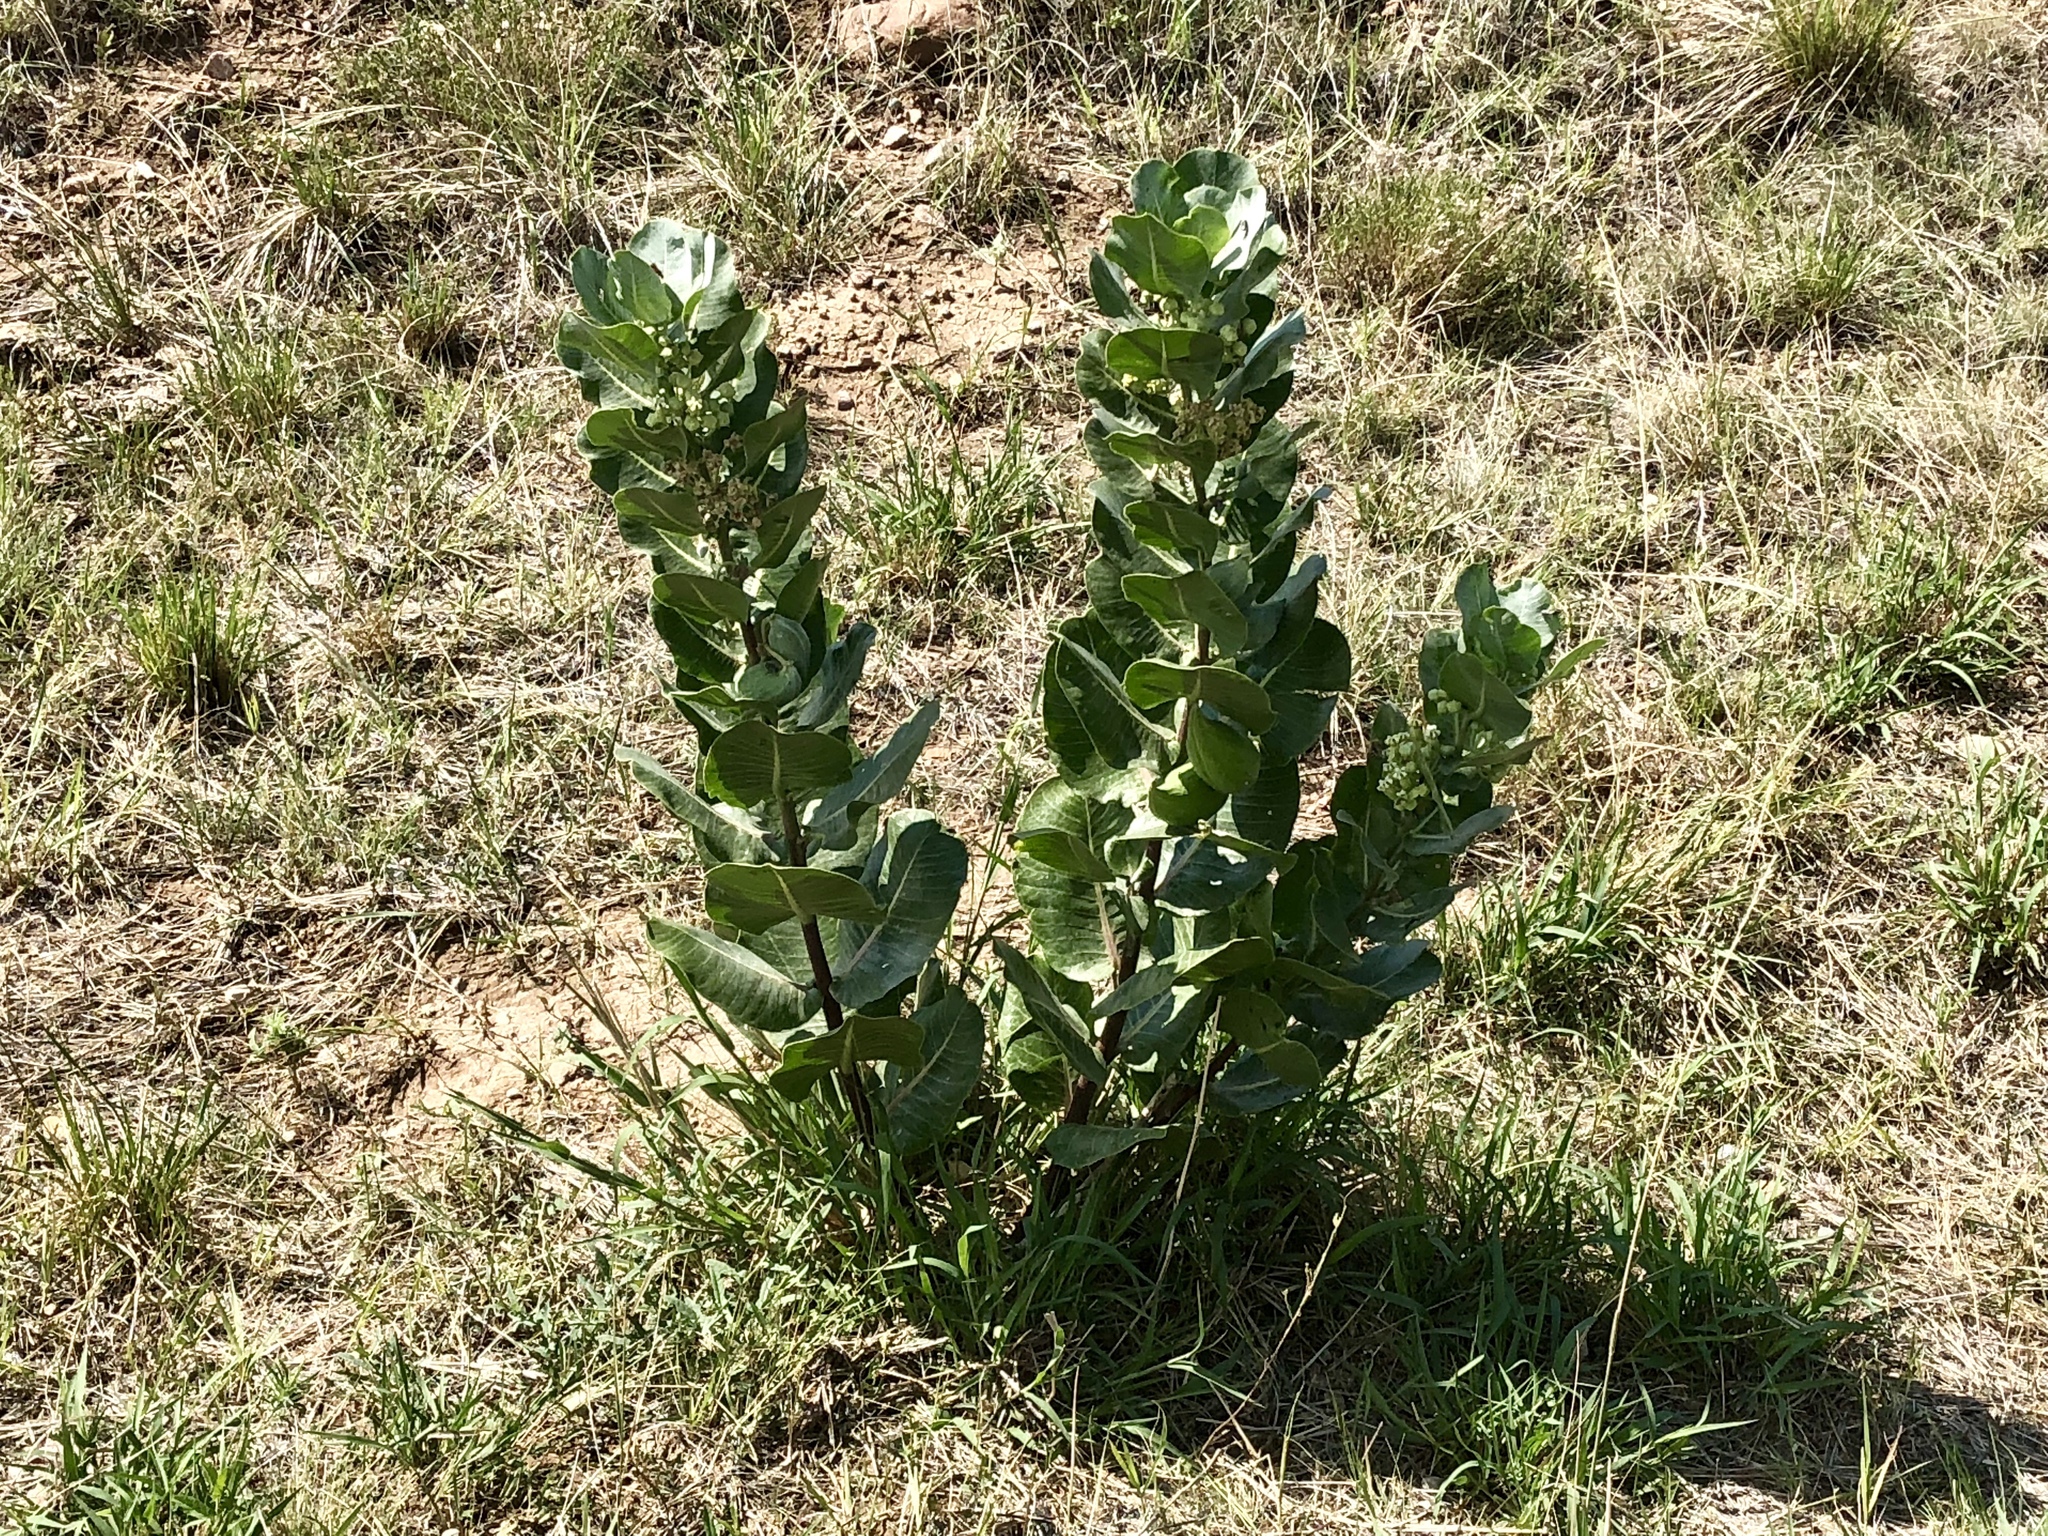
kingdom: Plantae
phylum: Tracheophyta
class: Magnoliopsida
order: Gentianales
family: Apocynaceae
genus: Asclepias
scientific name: Asclepias latifolia
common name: Broadleaf milkweed
